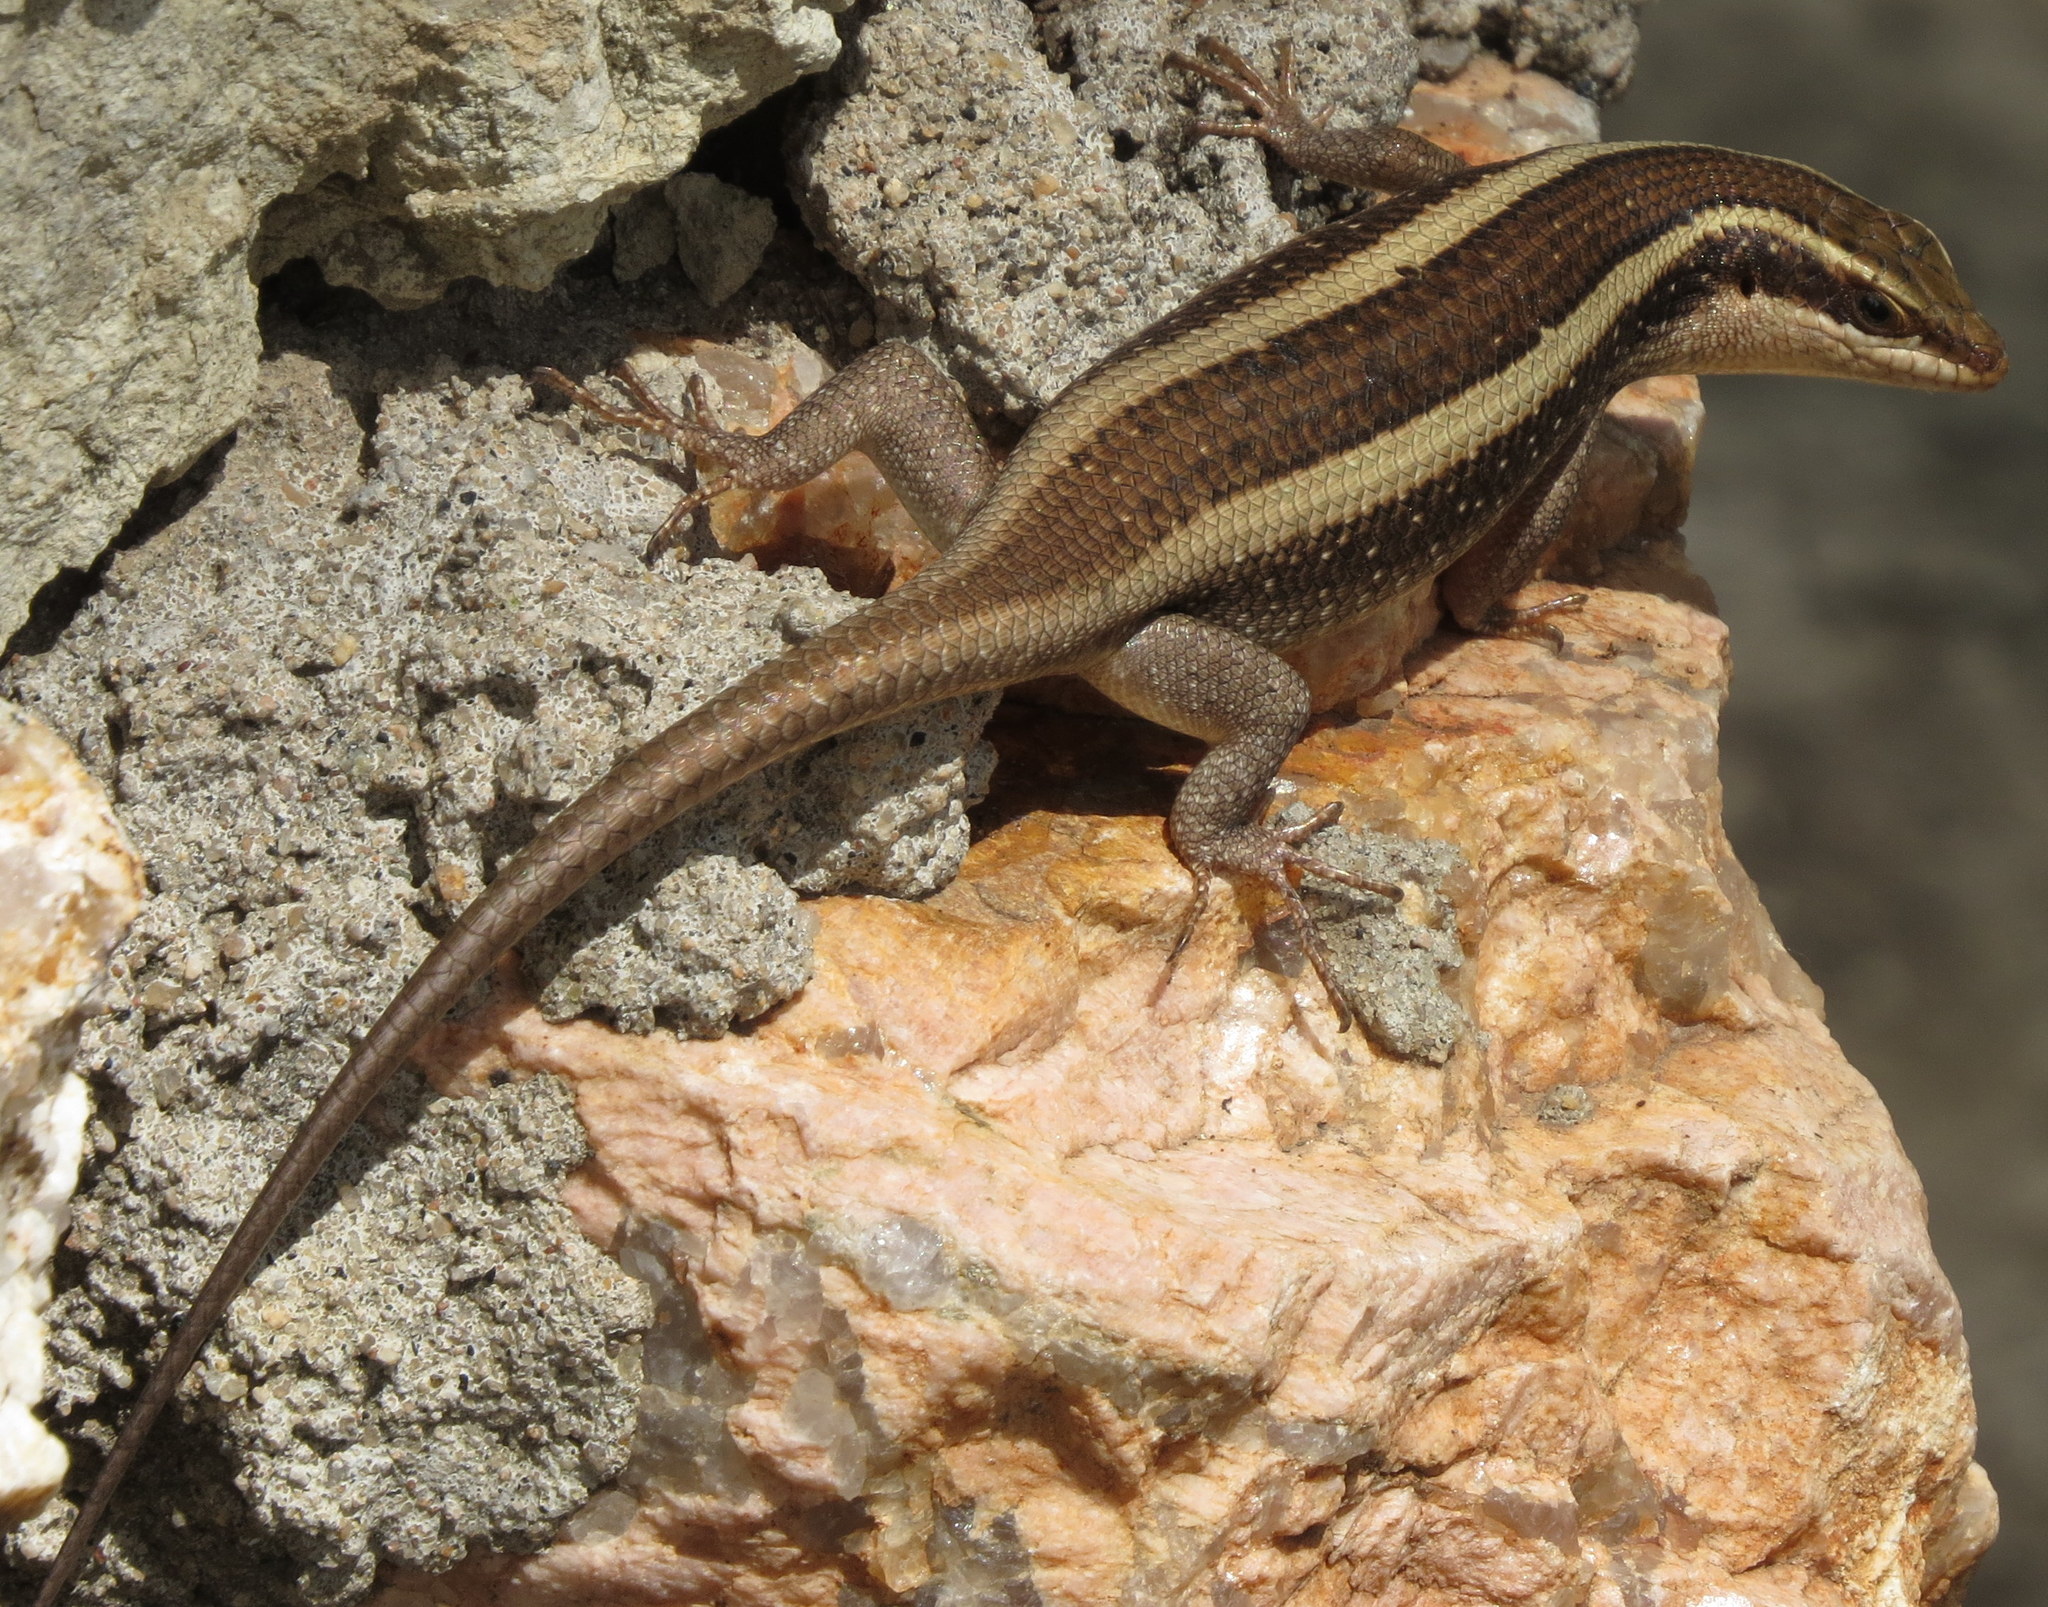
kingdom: Animalia
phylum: Chordata
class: Squamata
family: Scincidae
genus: Trachylepis
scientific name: Trachylepis striata
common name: African striped mabuya
